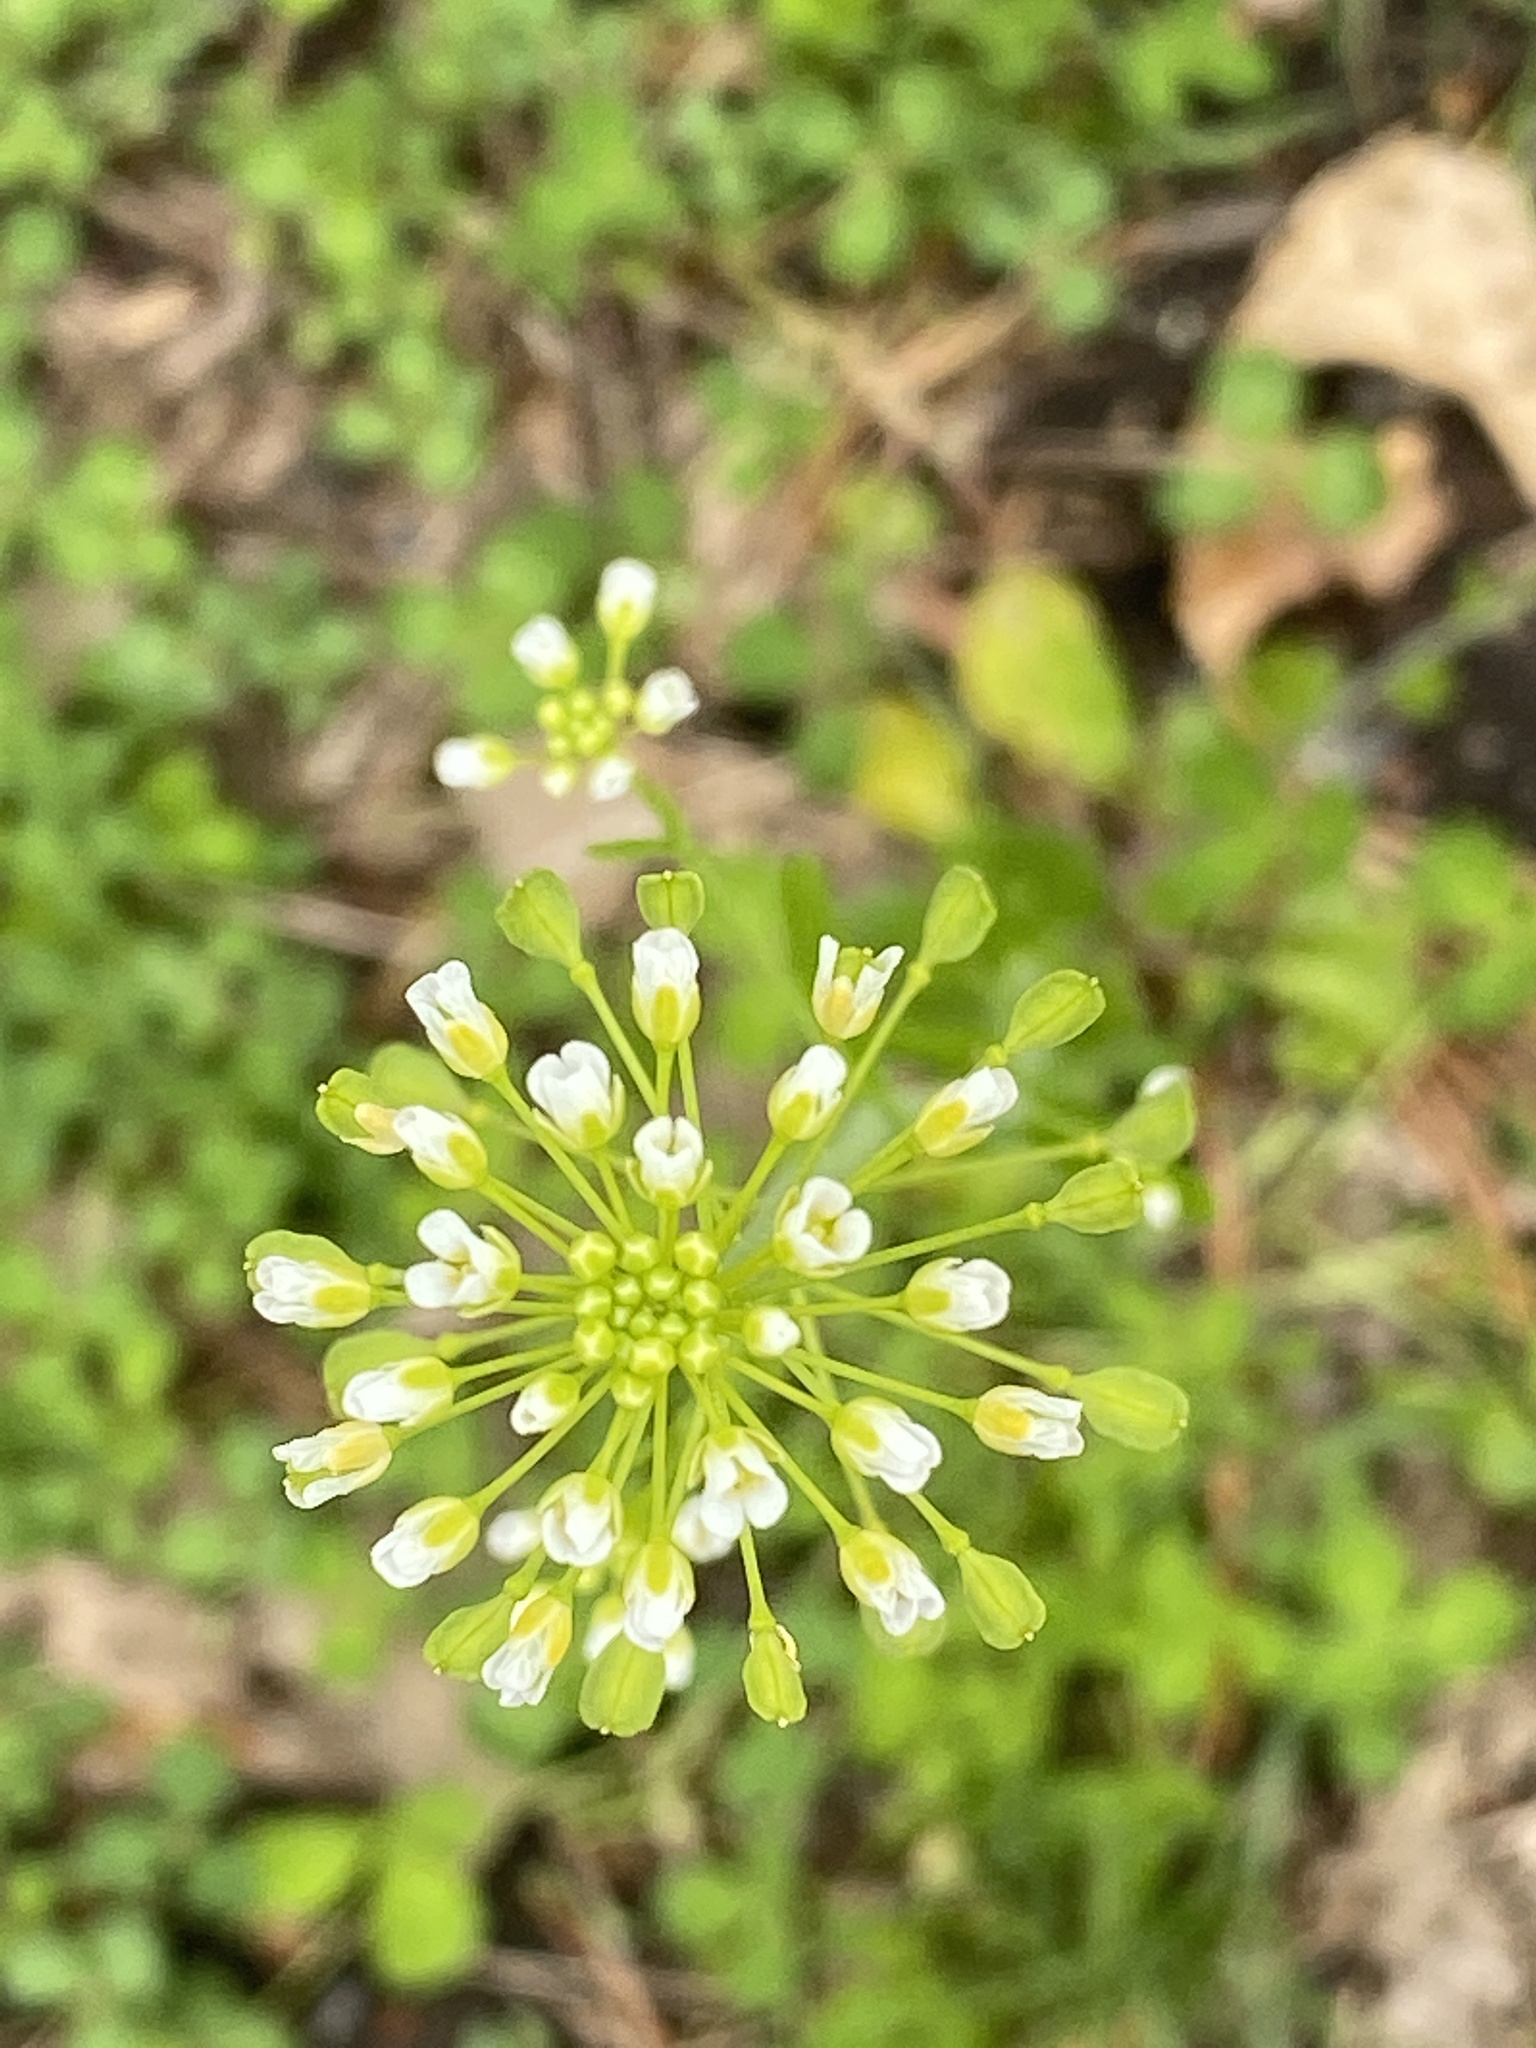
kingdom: Plantae
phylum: Tracheophyta
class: Magnoliopsida
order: Brassicales
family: Brassicaceae
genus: Mummenhoffia
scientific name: Mummenhoffia alliacea
